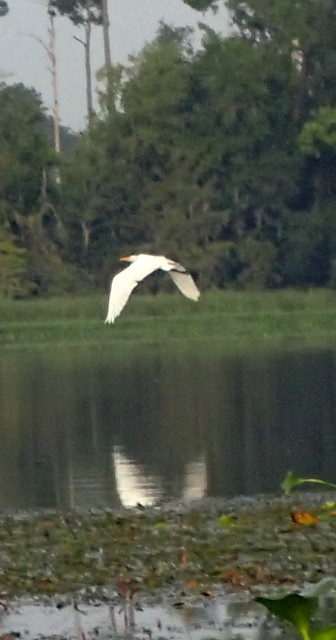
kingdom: Animalia
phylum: Chordata
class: Aves
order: Pelecaniformes
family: Ardeidae
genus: Ardea
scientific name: Ardea alba
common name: Great egret
